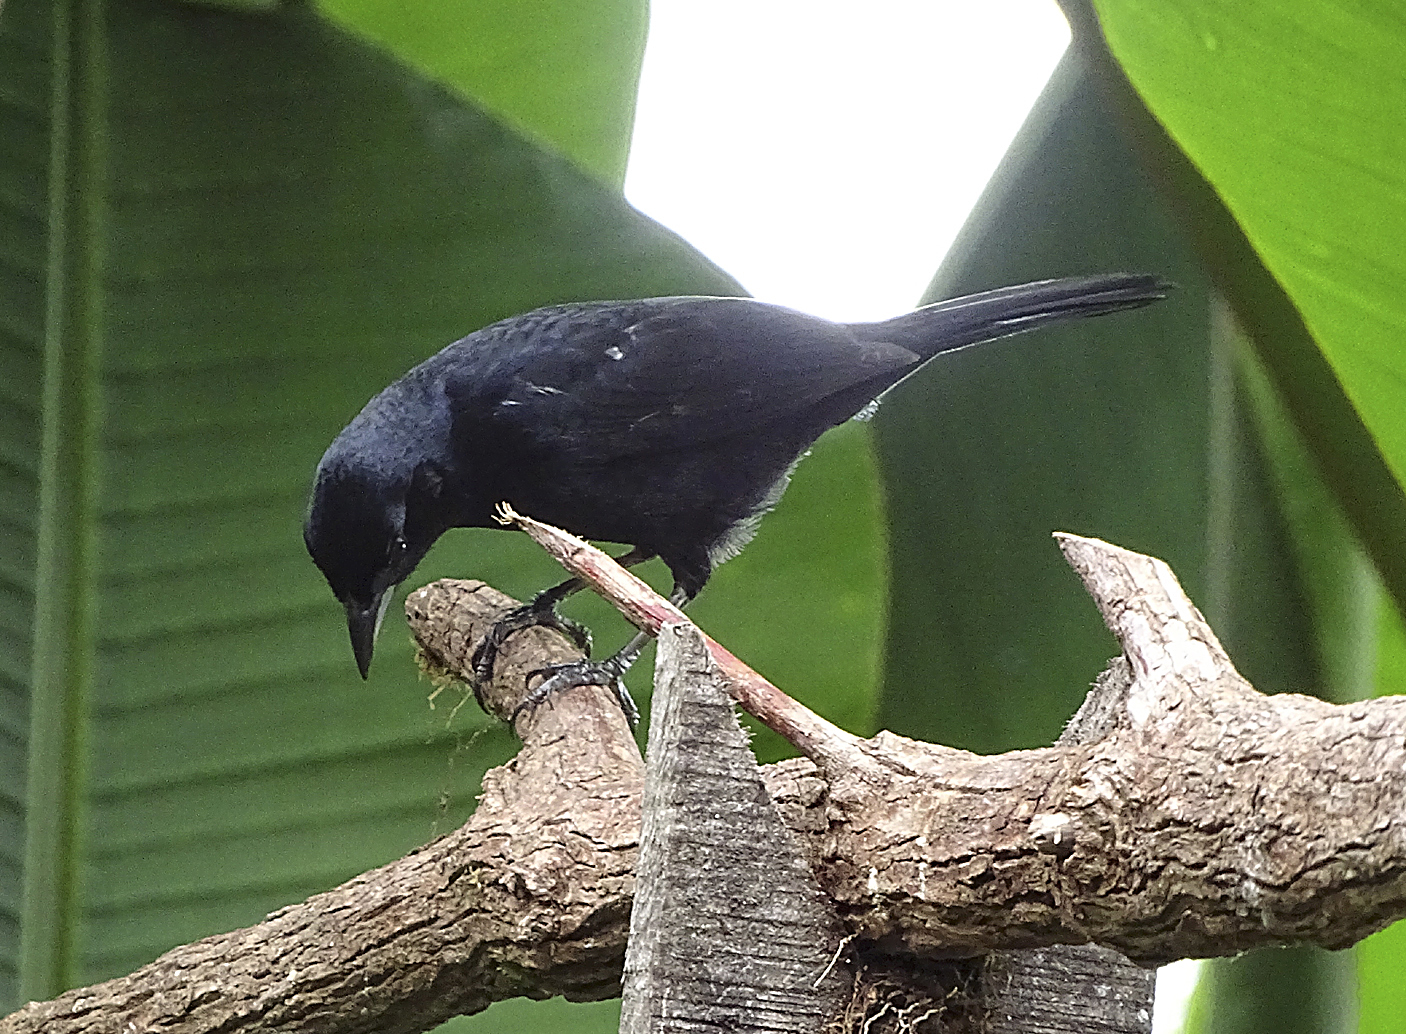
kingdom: Animalia
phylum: Chordata
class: Aves
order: Passeriformes
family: Thraupidae
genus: Tachyphonus
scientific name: Tachyphonus rufus
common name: White-lined tanager
